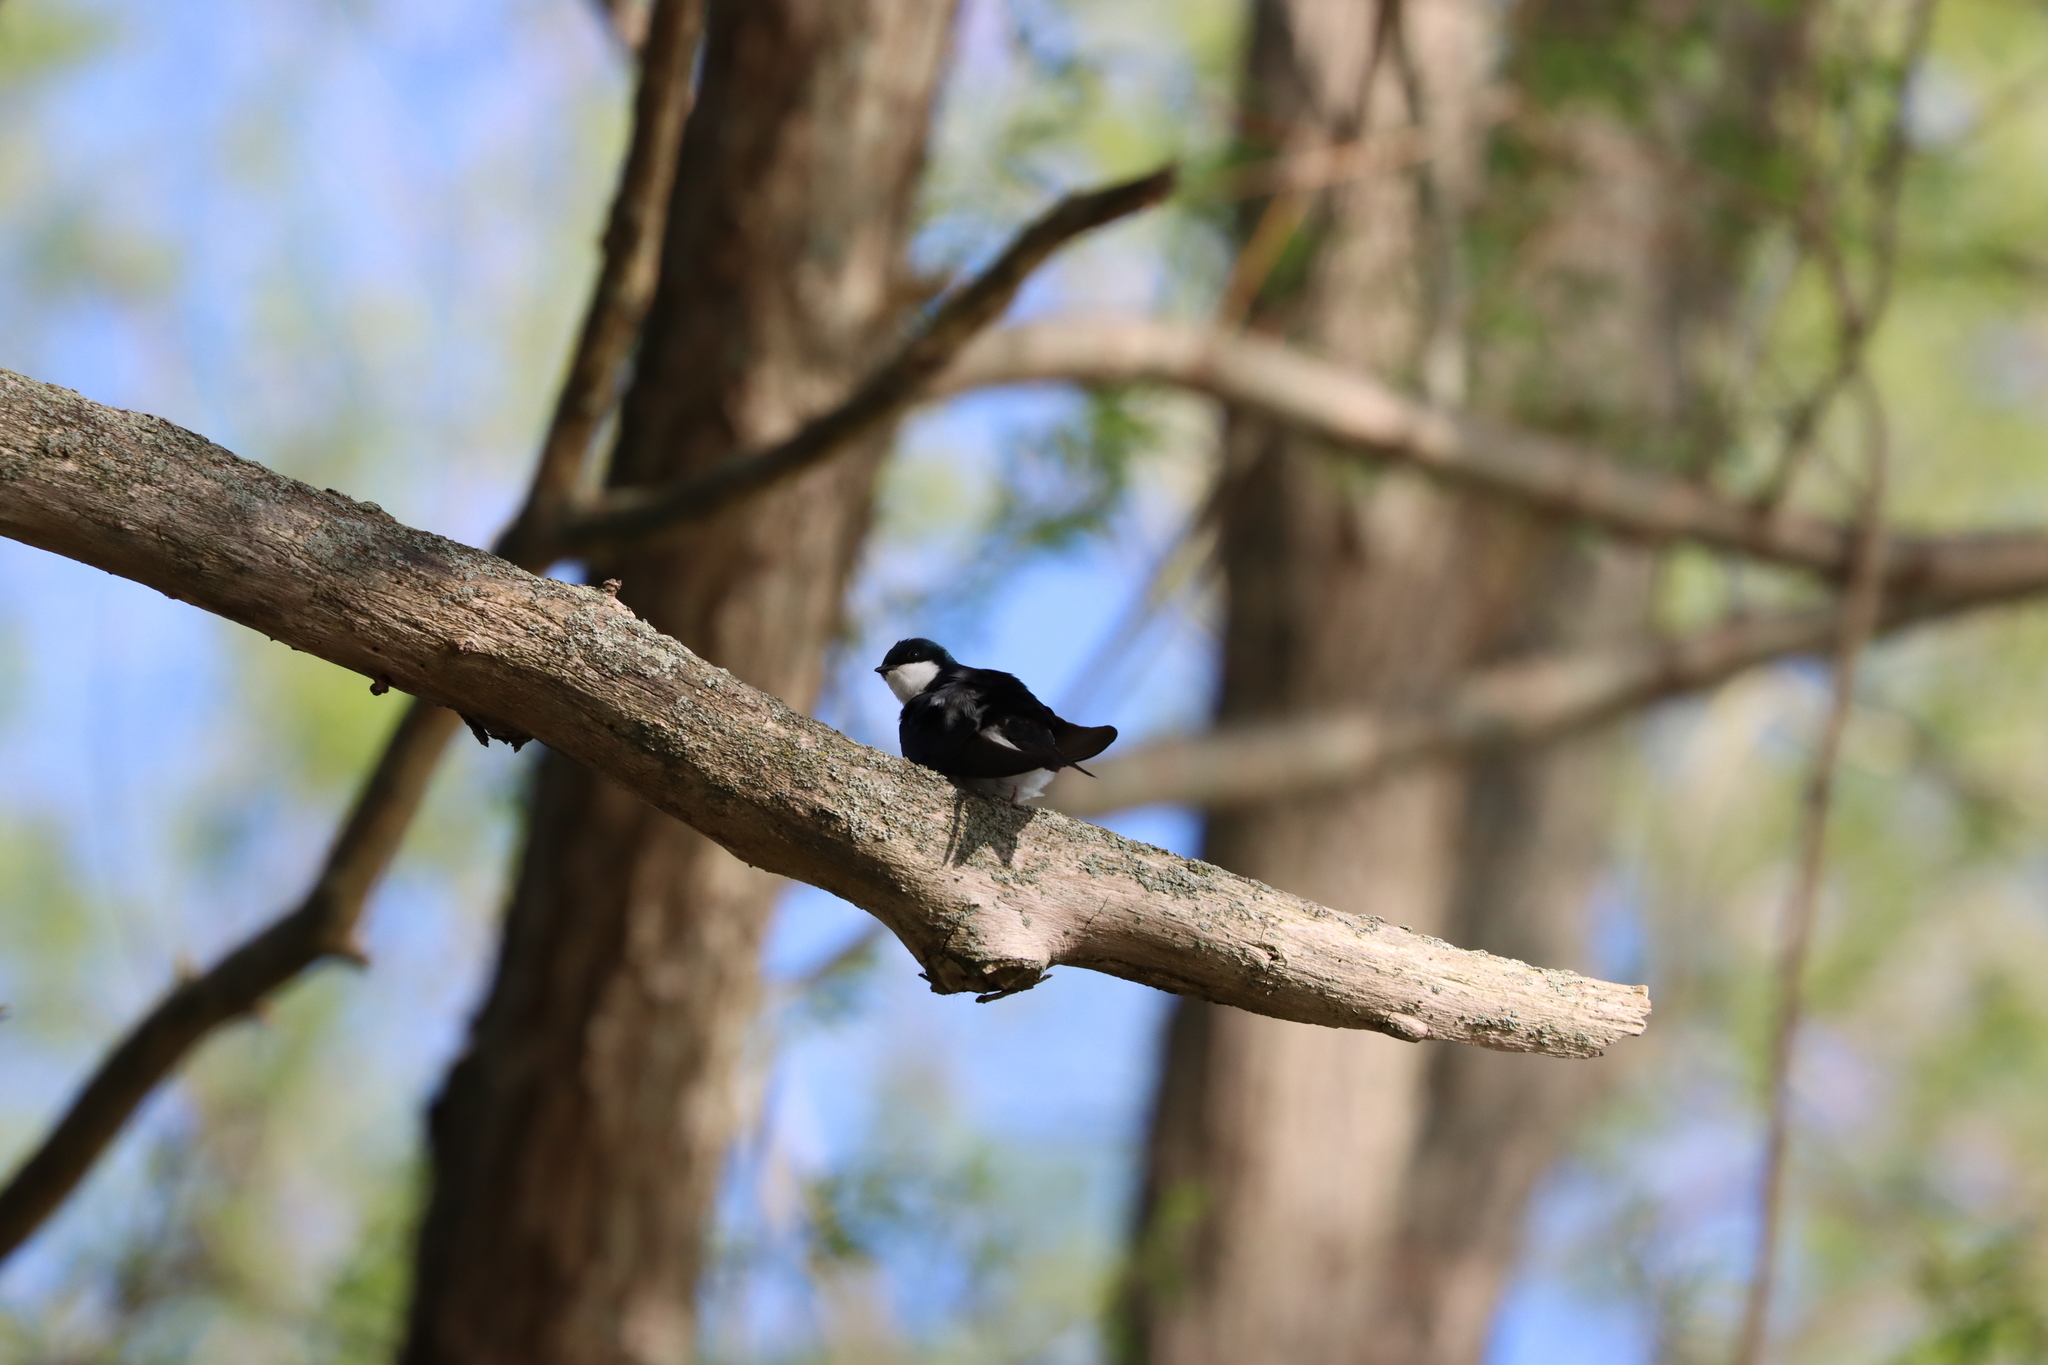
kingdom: Animalia
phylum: Chordata
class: Aves
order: Passeriformes
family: Hirundinidae
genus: Tachycineta
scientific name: Tachycineta bicolor
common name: Tree swallow
